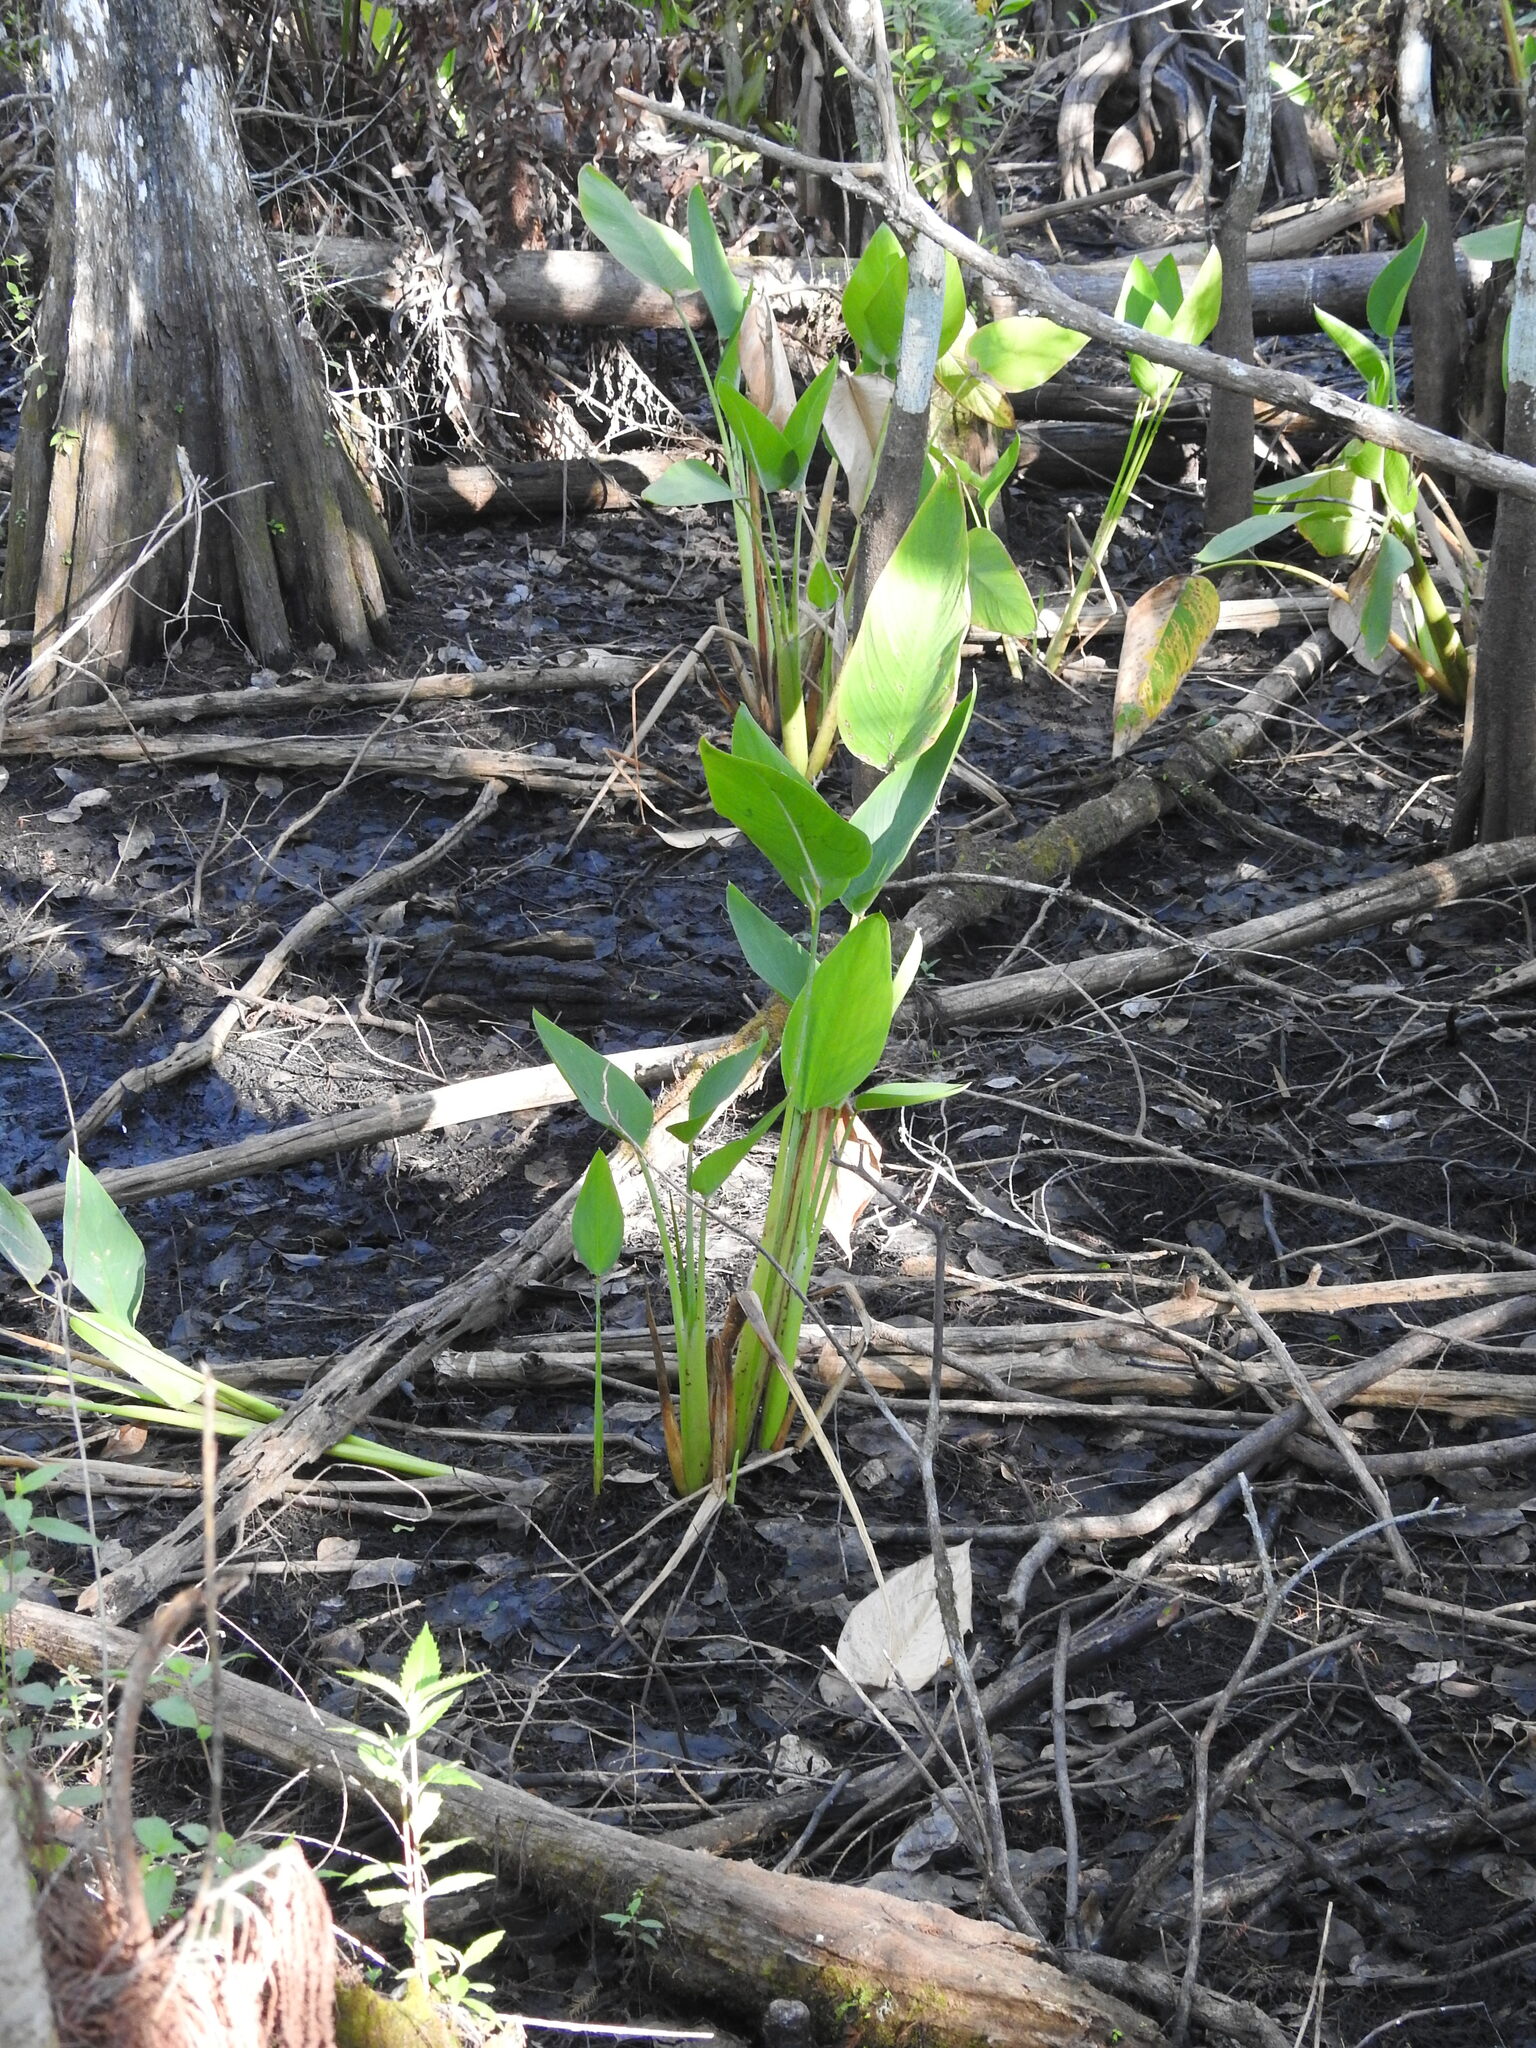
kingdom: Plantae
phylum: Tracheophyta
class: Liliopsida
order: Zingiberales
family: Marantaceae
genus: Thalia
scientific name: Thalia geniculata
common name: Arrowroot
